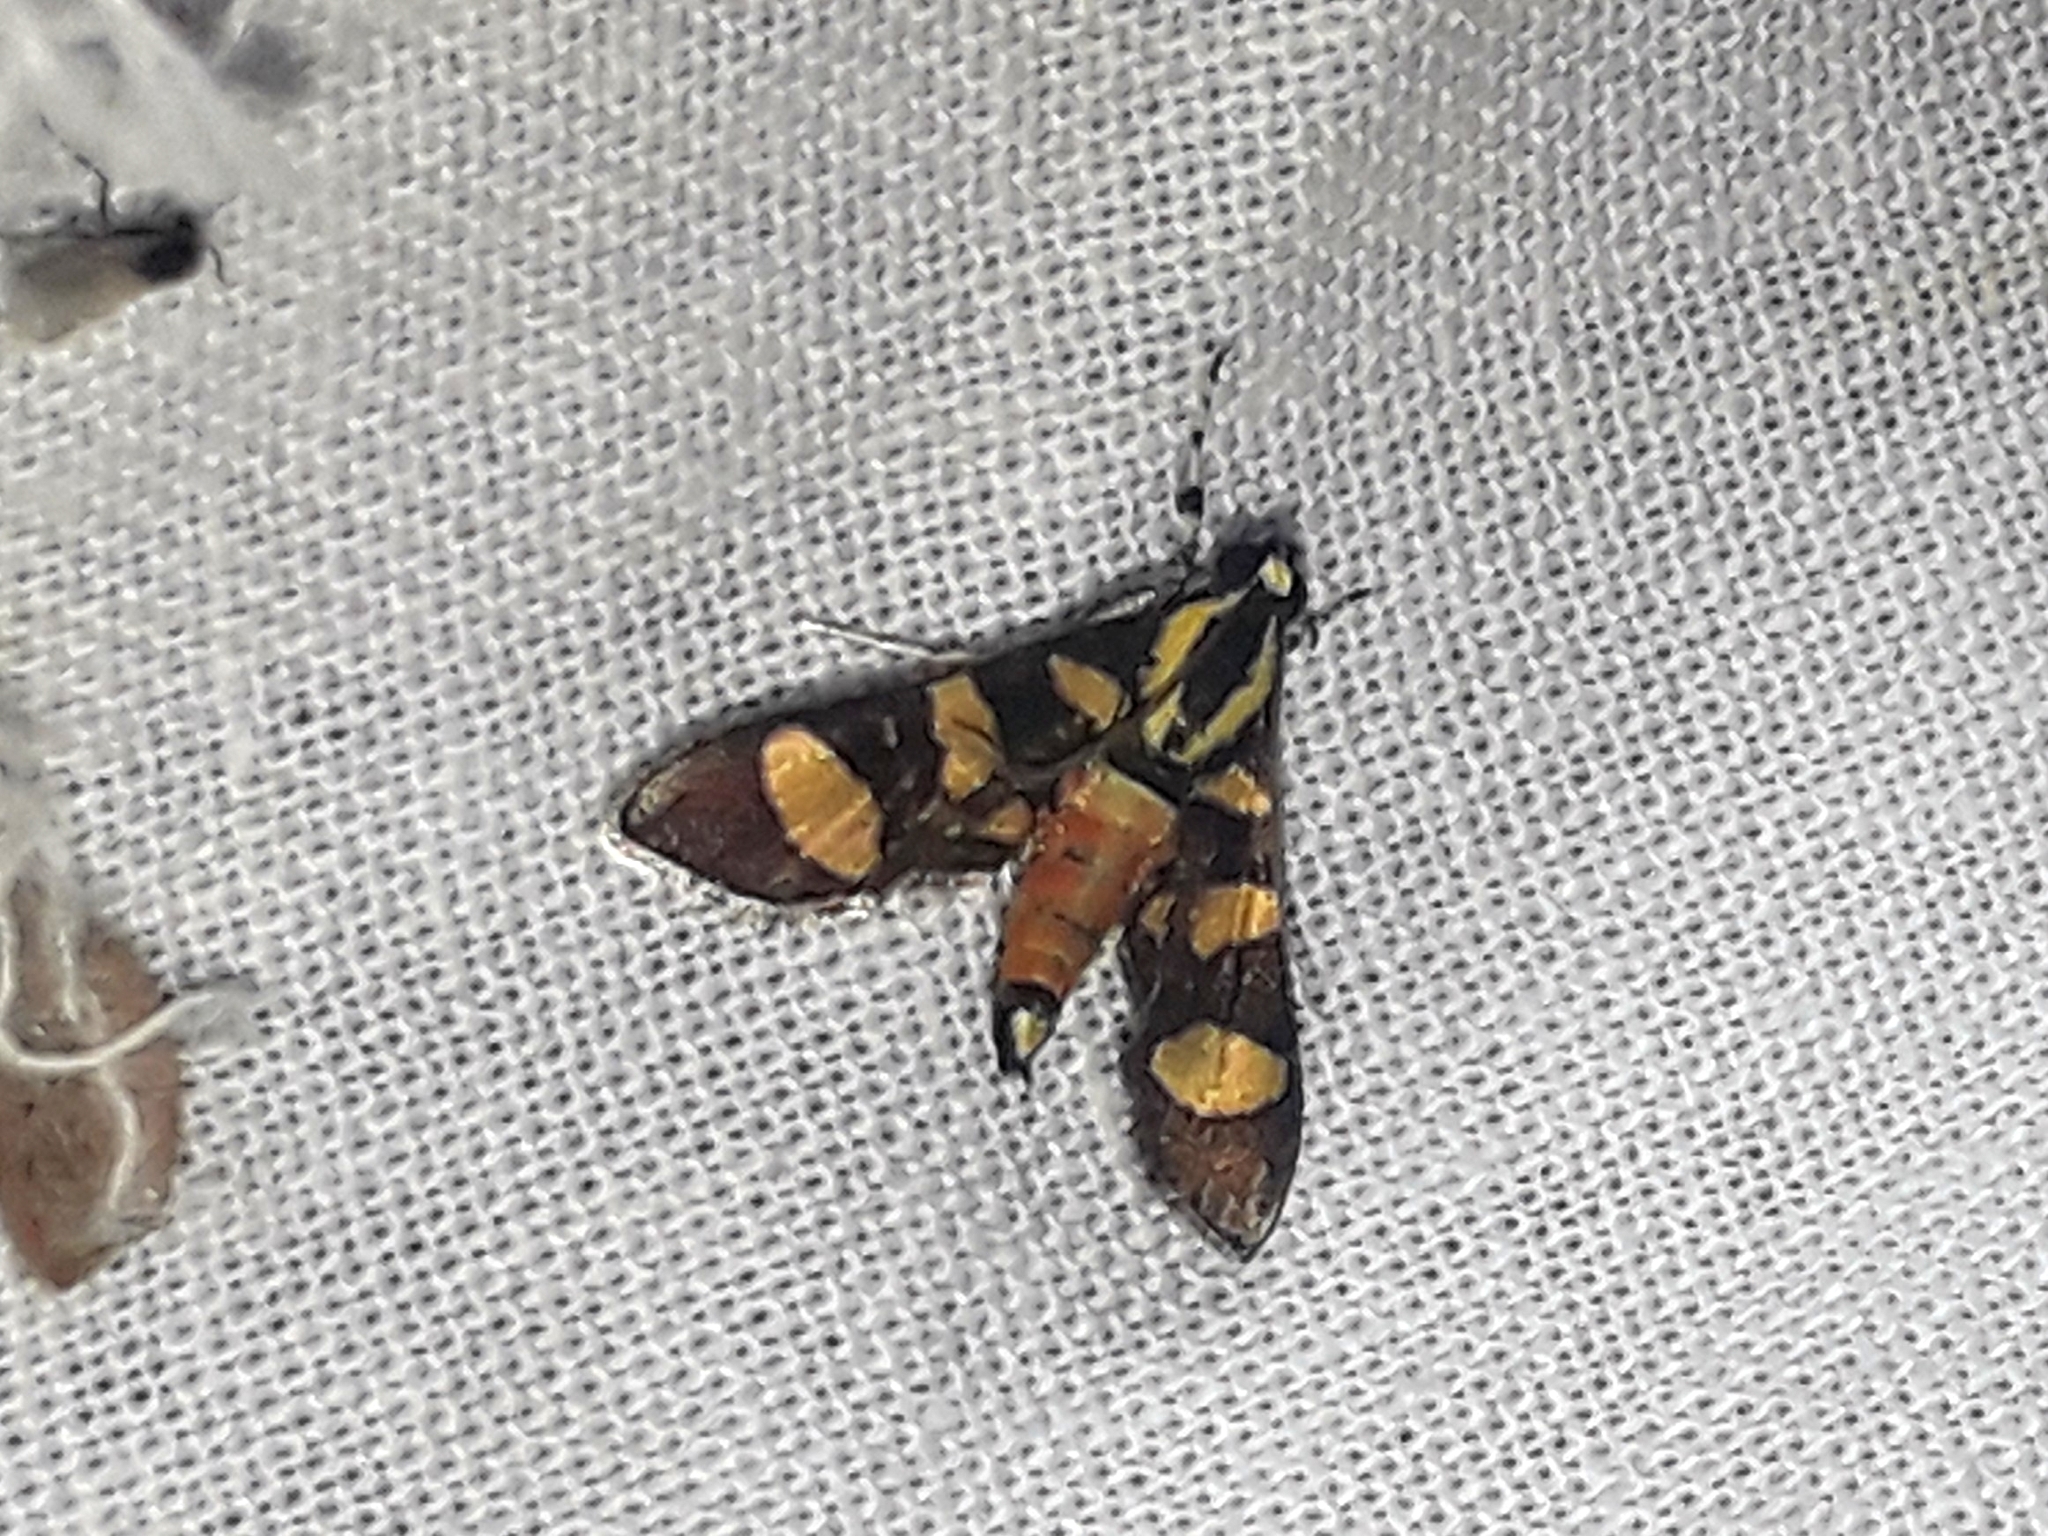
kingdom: Animalia
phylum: Arthropoda
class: Insecta
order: Lepidoptera
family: Crambidae
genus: Syngamia
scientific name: Syngamia florella
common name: Orange-spotted flower moth
